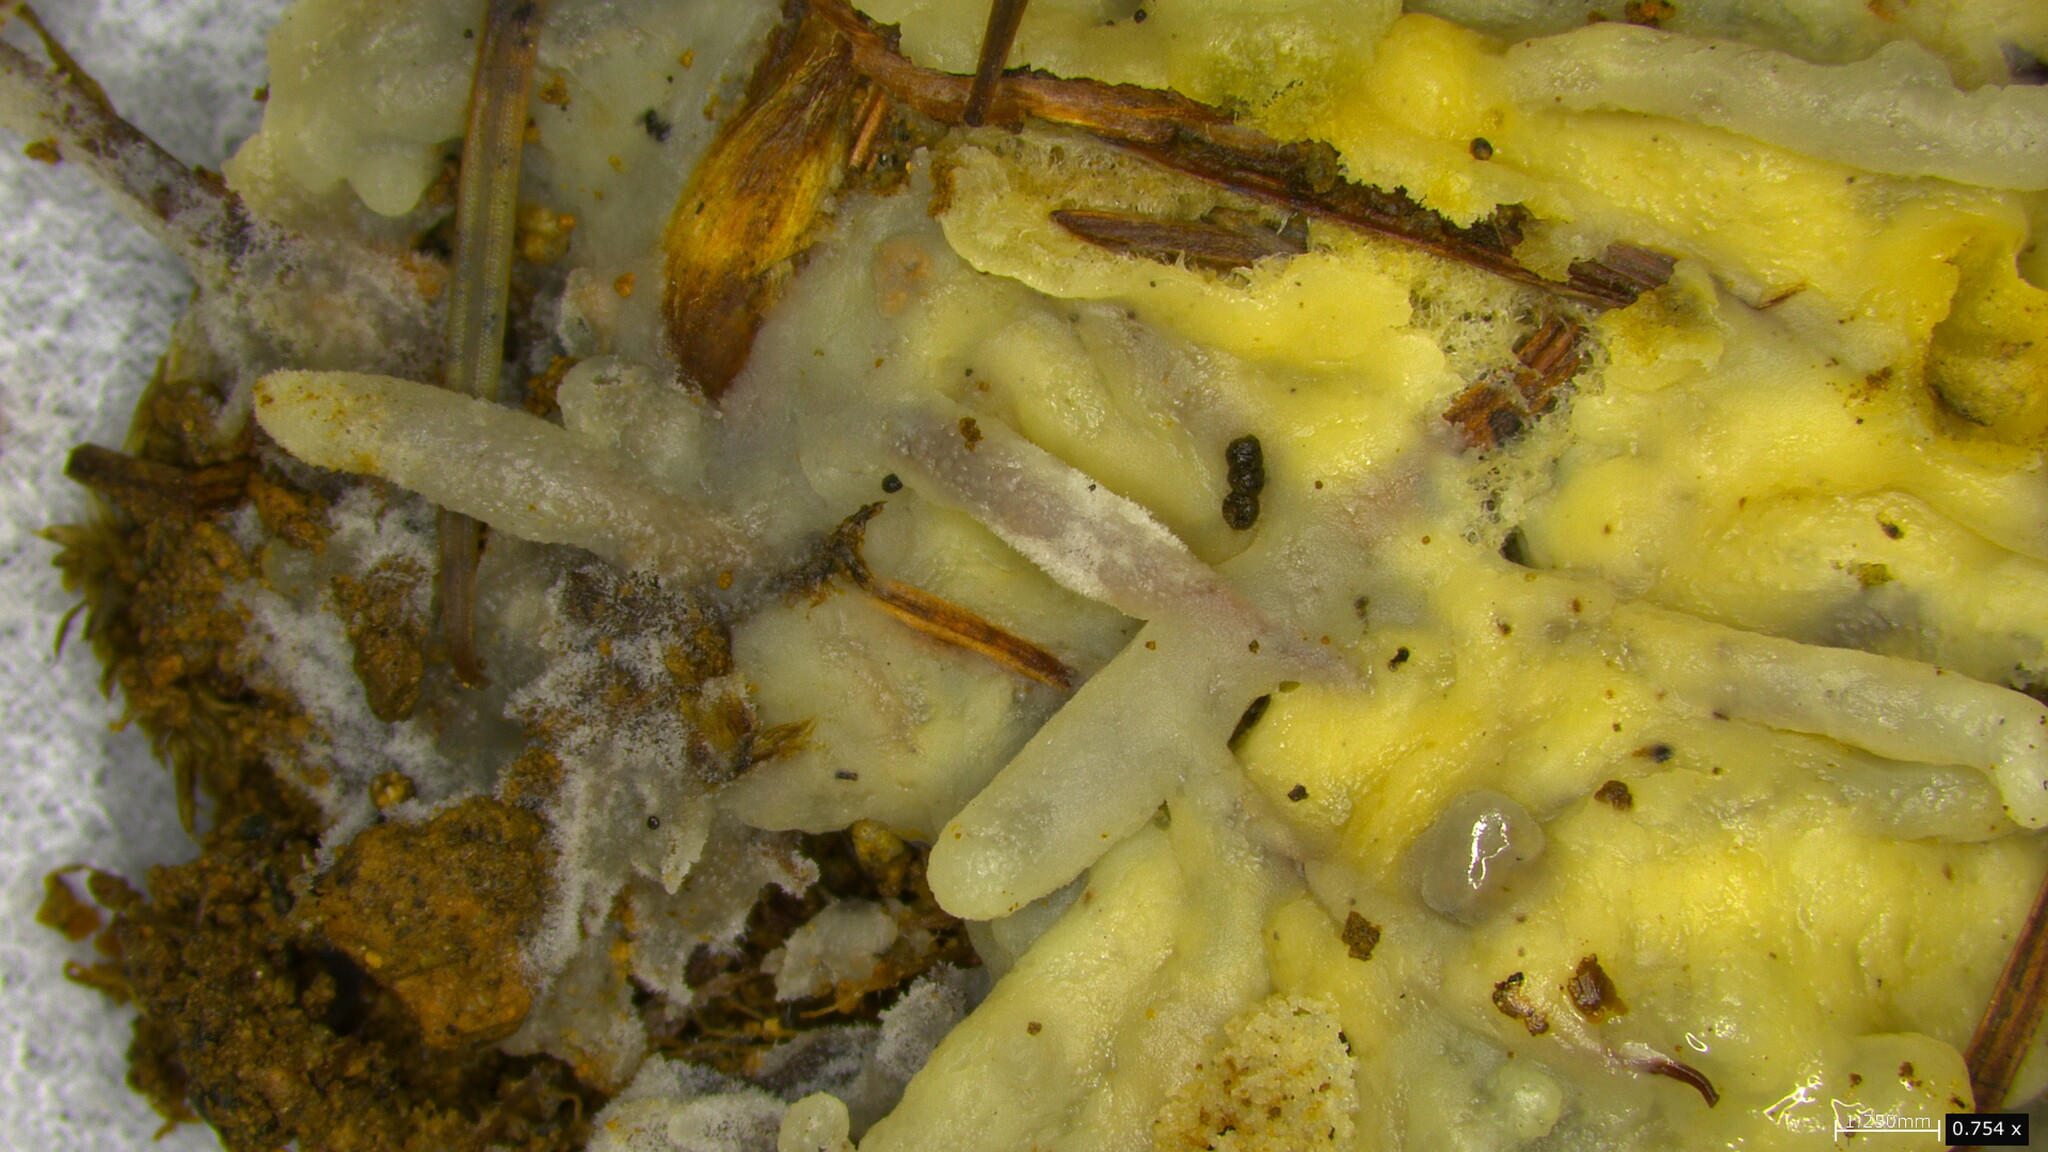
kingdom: Fungi
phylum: Basidiomycota
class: Agaricomycetes
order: Sebacinales
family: Sebacinaceae
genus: Sebacina
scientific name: Sebacina incrustans
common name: Enveloping crust
